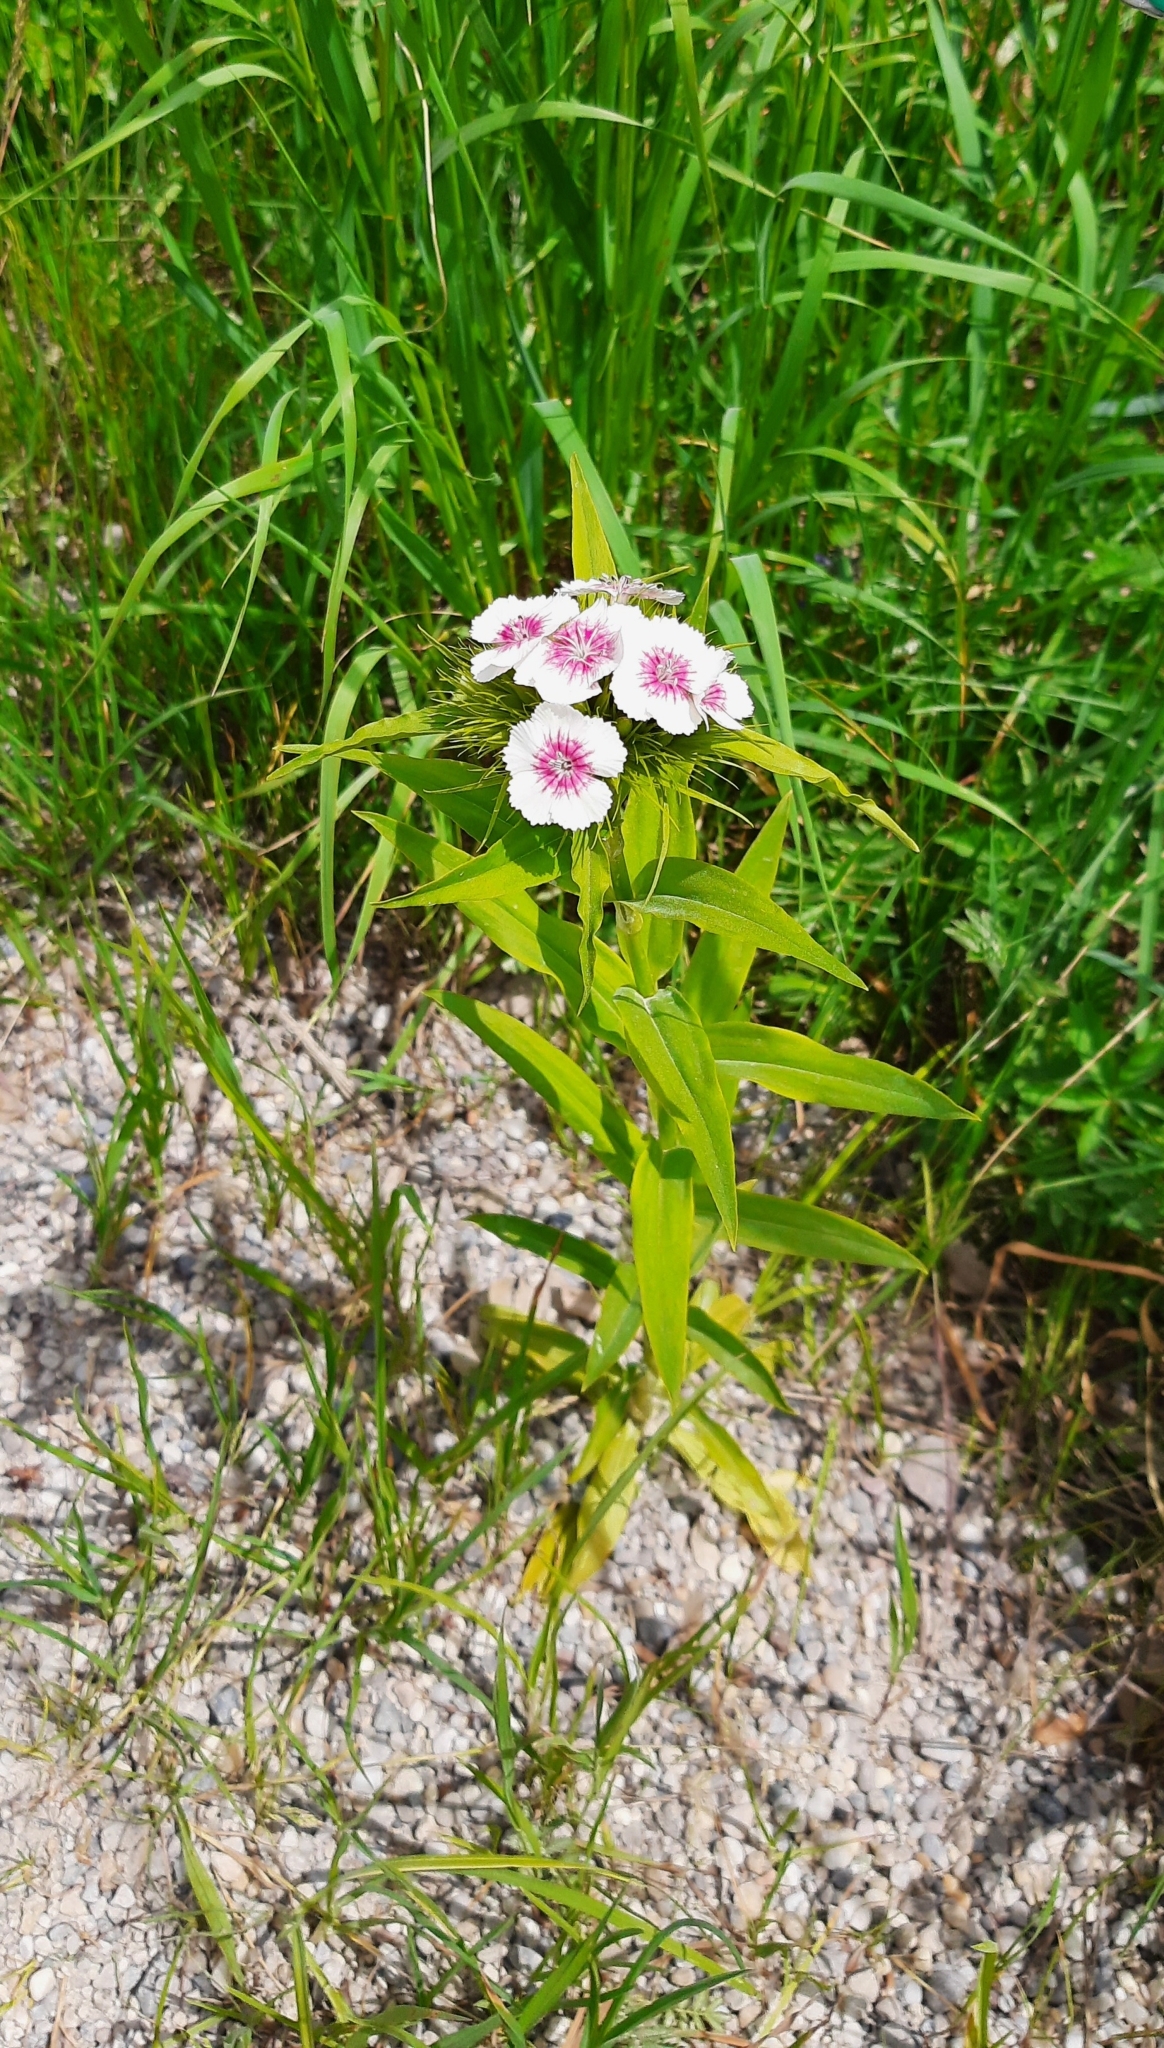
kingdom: Plantae
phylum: Tracheophyta
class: Magnoliopsida
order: Caryophyllales
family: Caryophyllaceae
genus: Dianthus
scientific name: Dianthus barbatus
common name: Sweet-william
